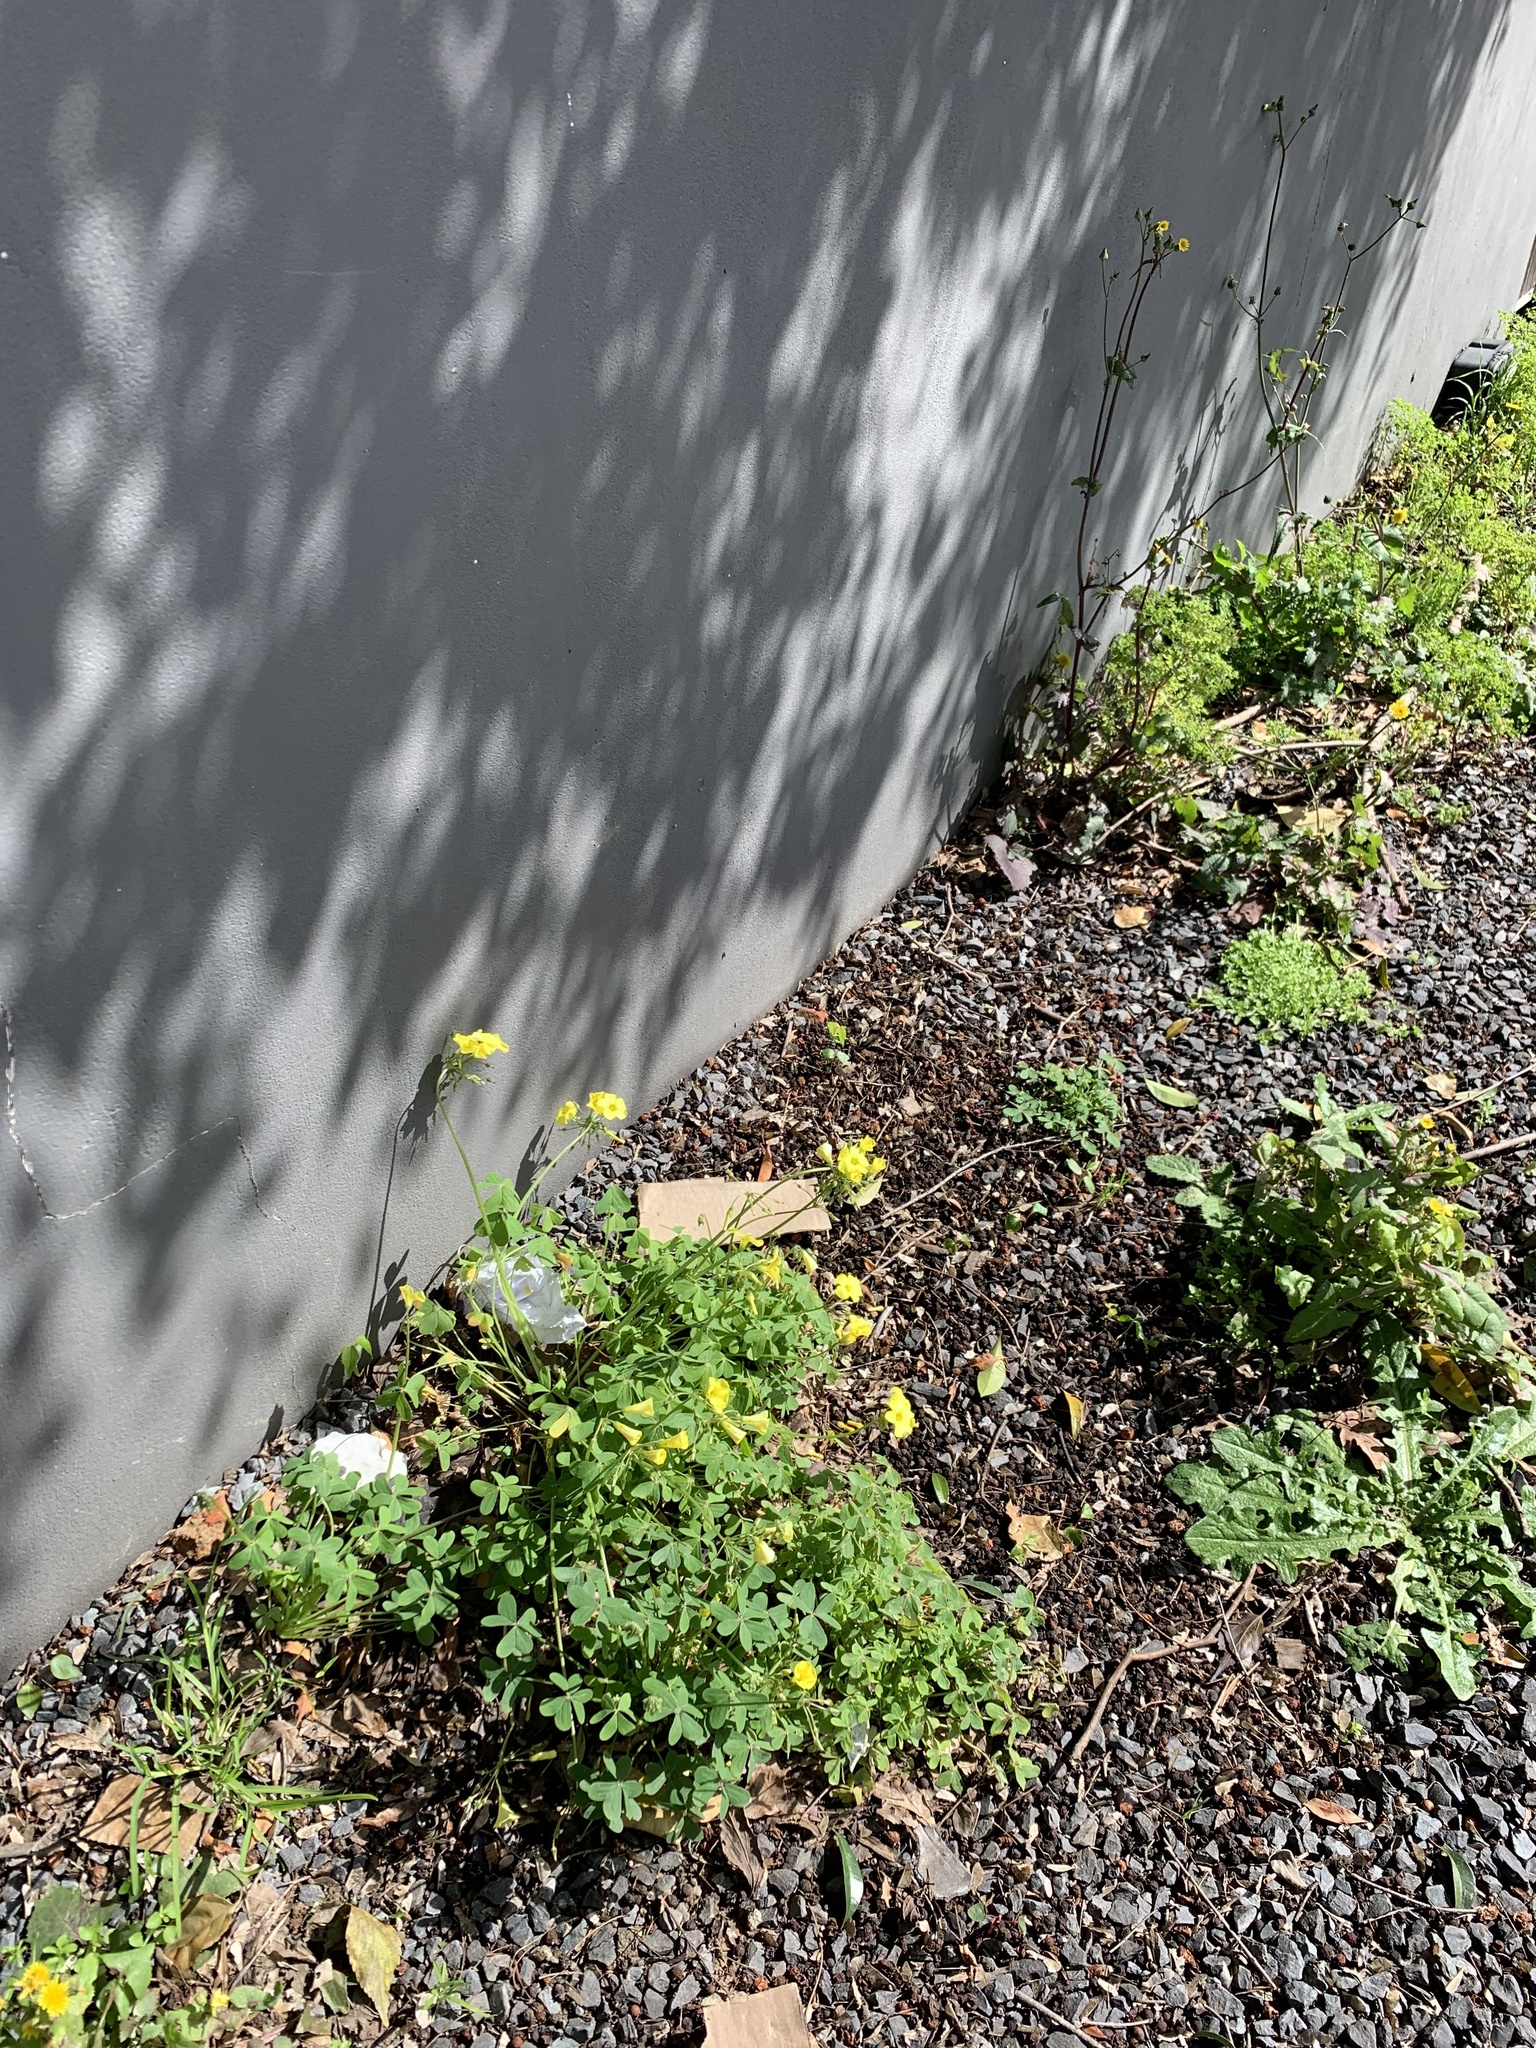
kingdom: Plantae
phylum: Tracheophyta
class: Magnoliopsida
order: Oxalidales
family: Oxalidaceae
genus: Oxalis
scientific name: Oxalis pes-caprae
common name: Bermuda-buttercup
